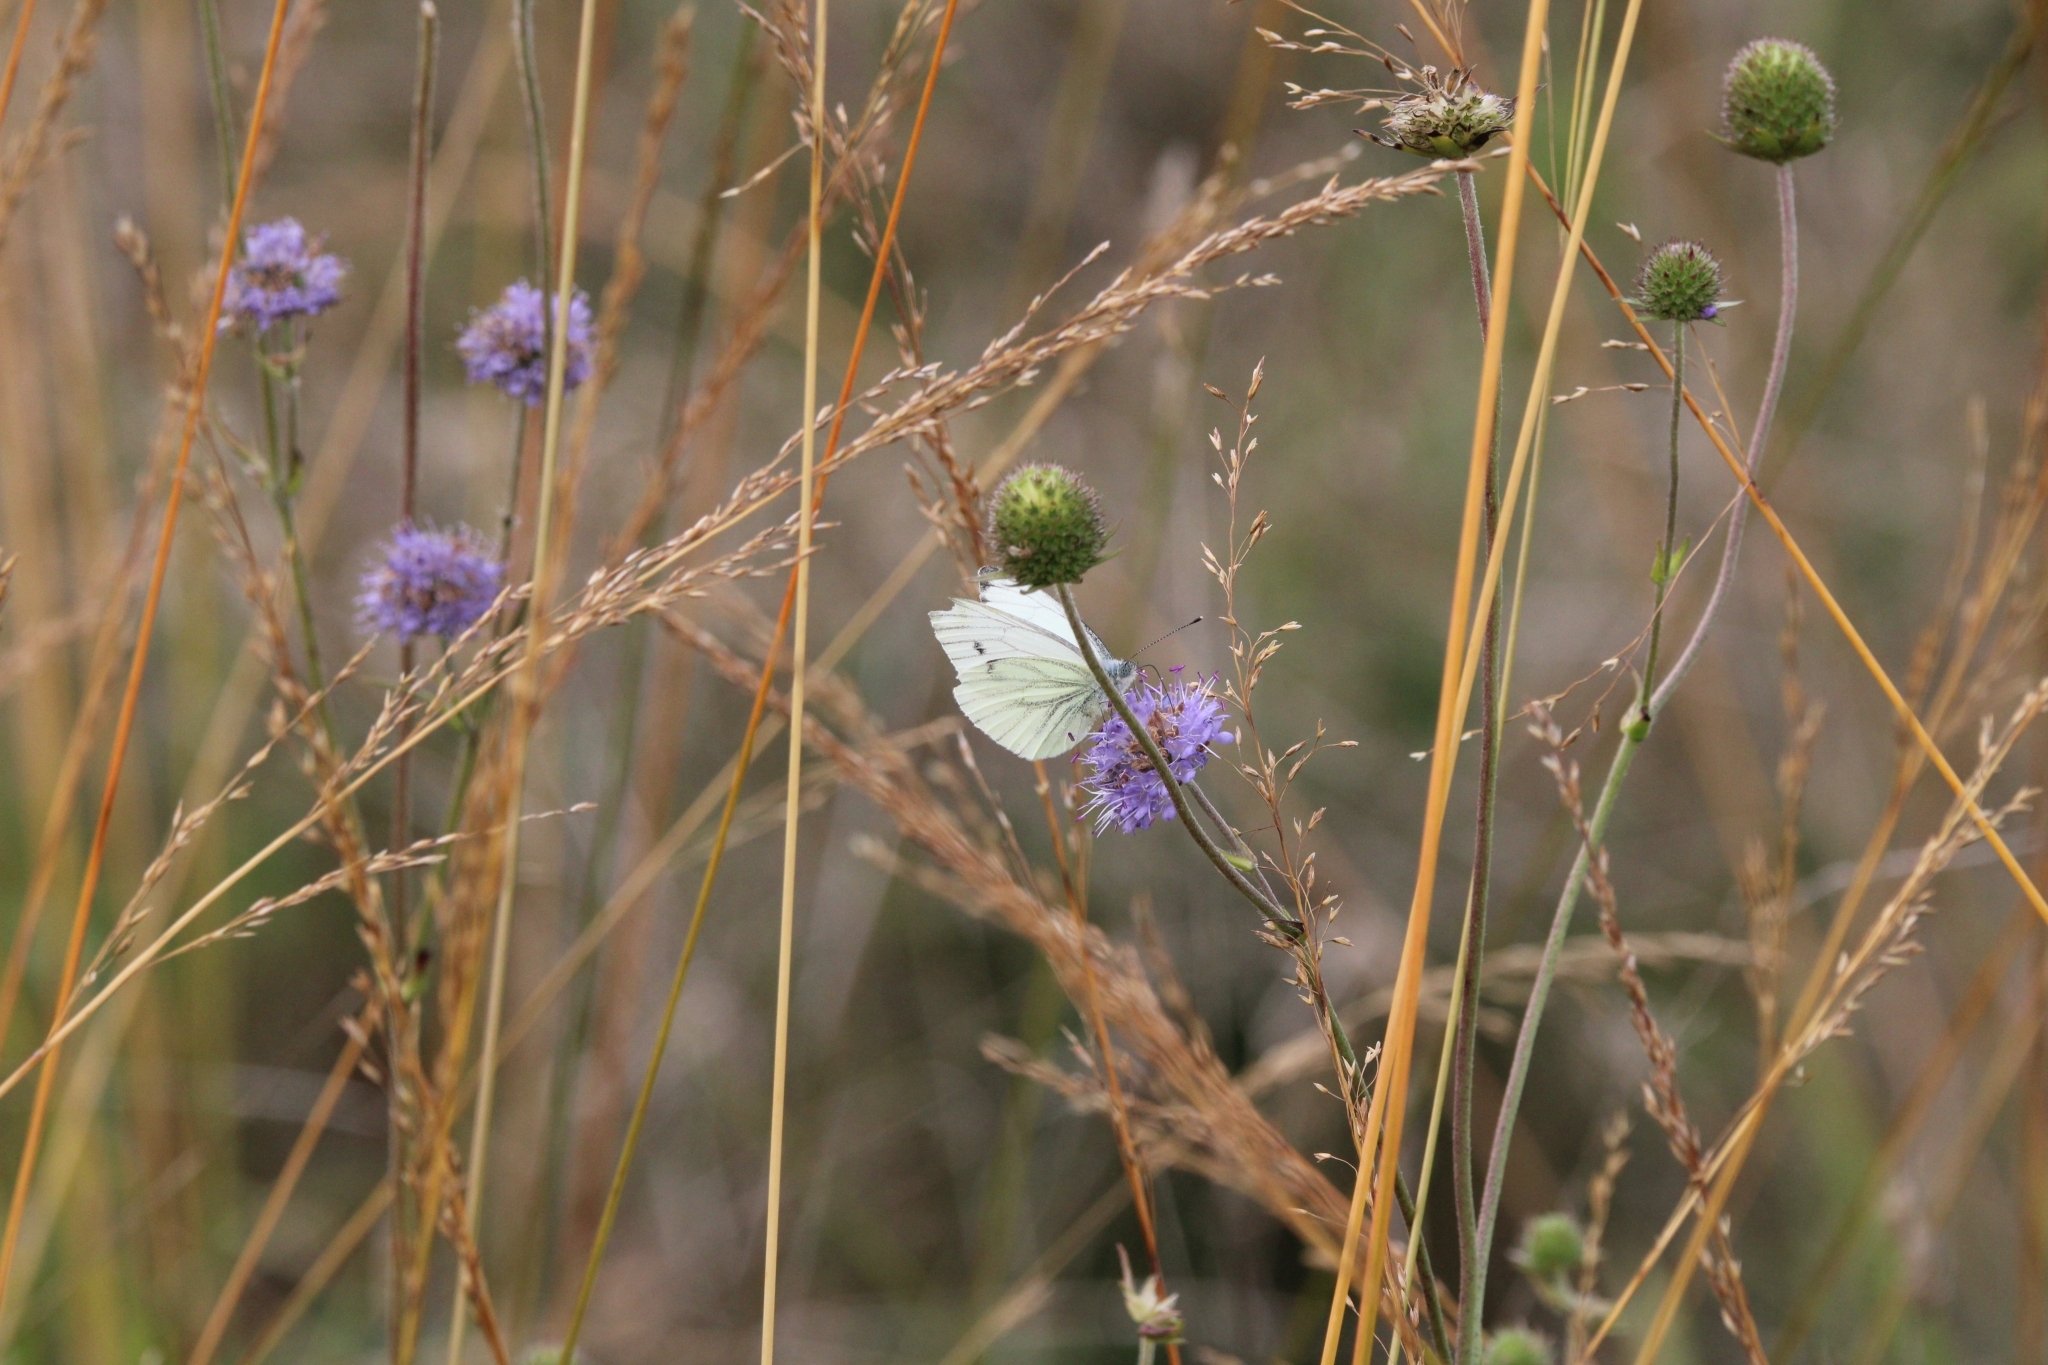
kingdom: Animalia
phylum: Arthropoda
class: Insecta
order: Lepidoptera
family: Pieridae
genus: Pieris
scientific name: Pieris napi
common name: Green-veined white
